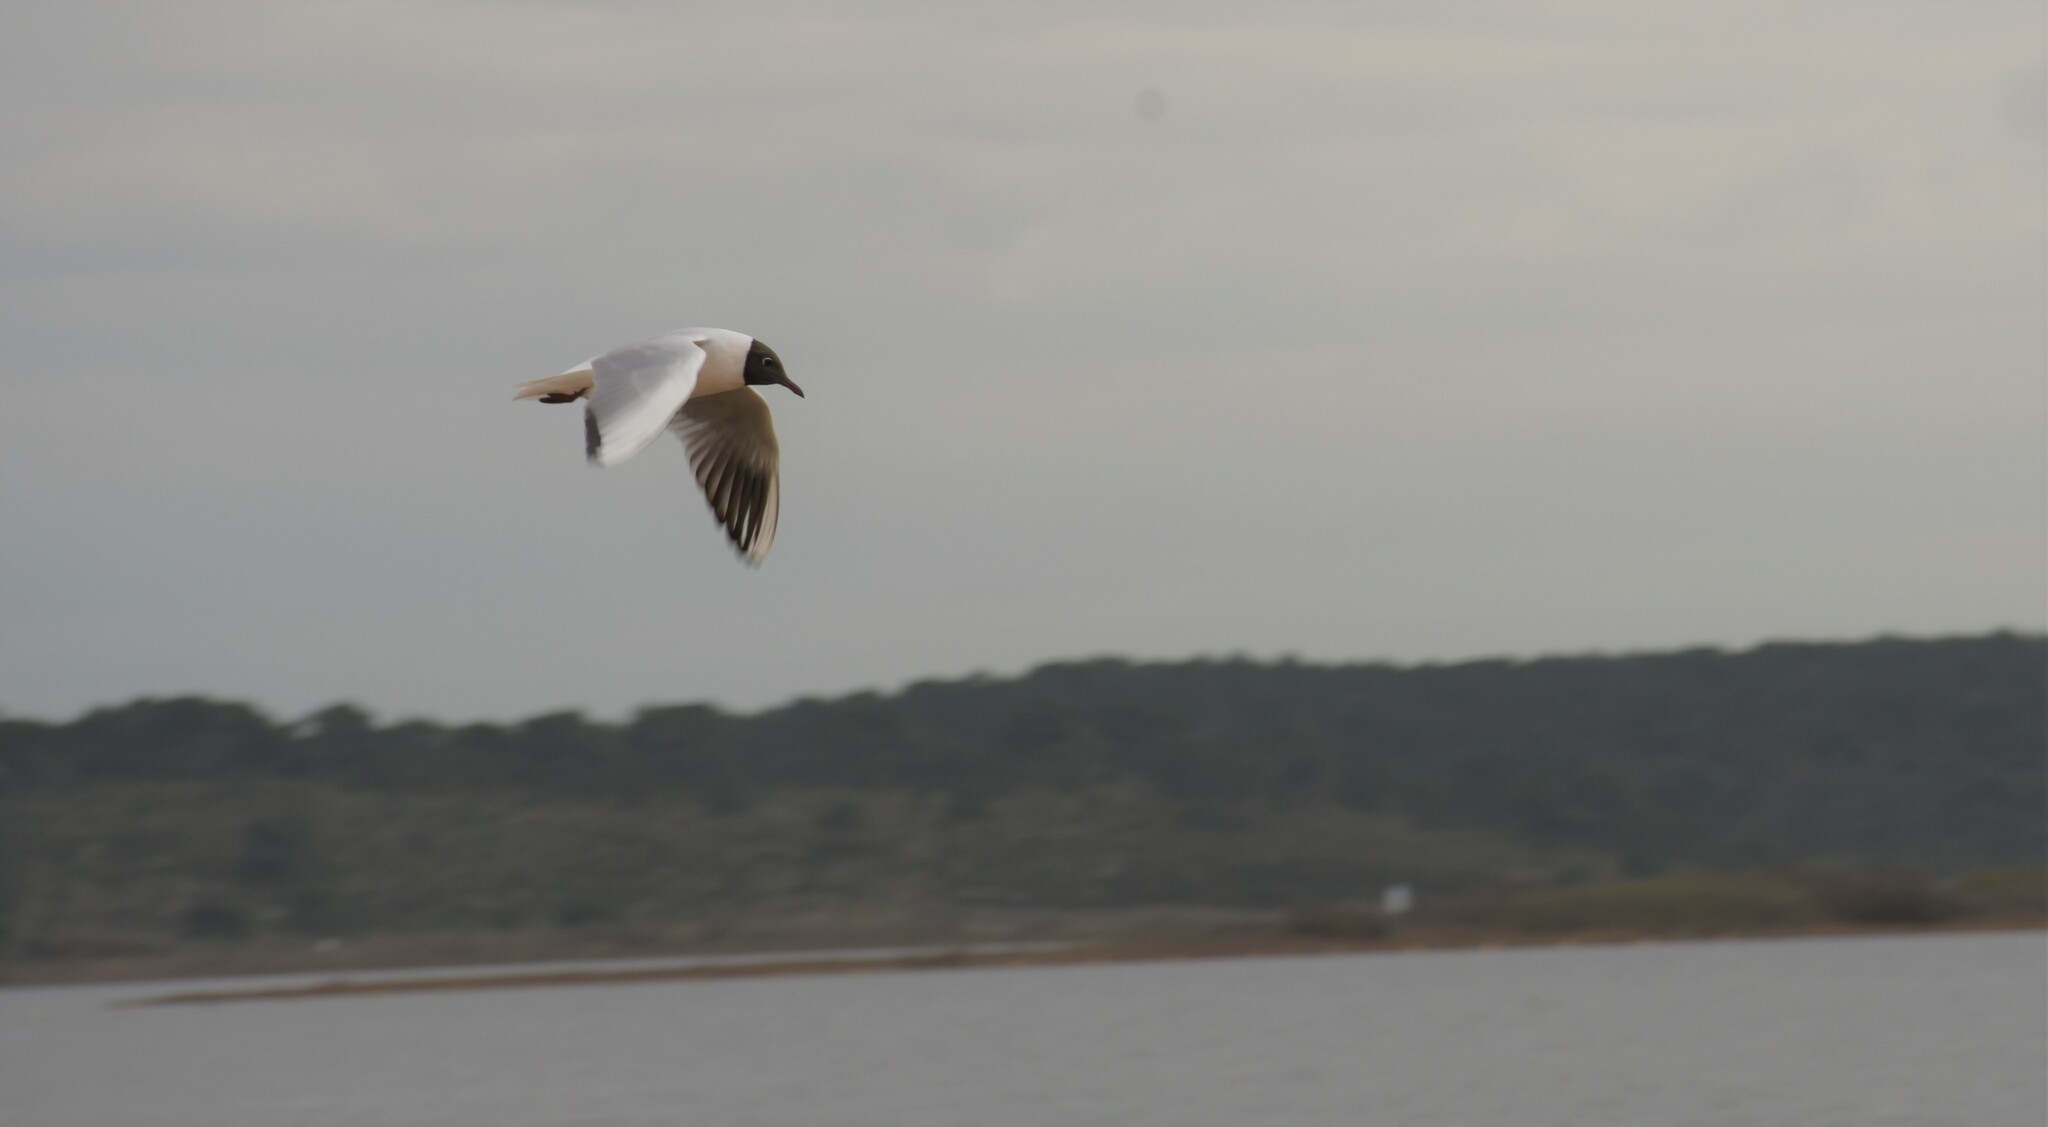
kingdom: Animalia
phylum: Chordata
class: Aves
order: Charadriiformes
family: Laridae
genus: Chroicocephalus
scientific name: Chroicocephalus ridibundus
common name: Black-headed gull
